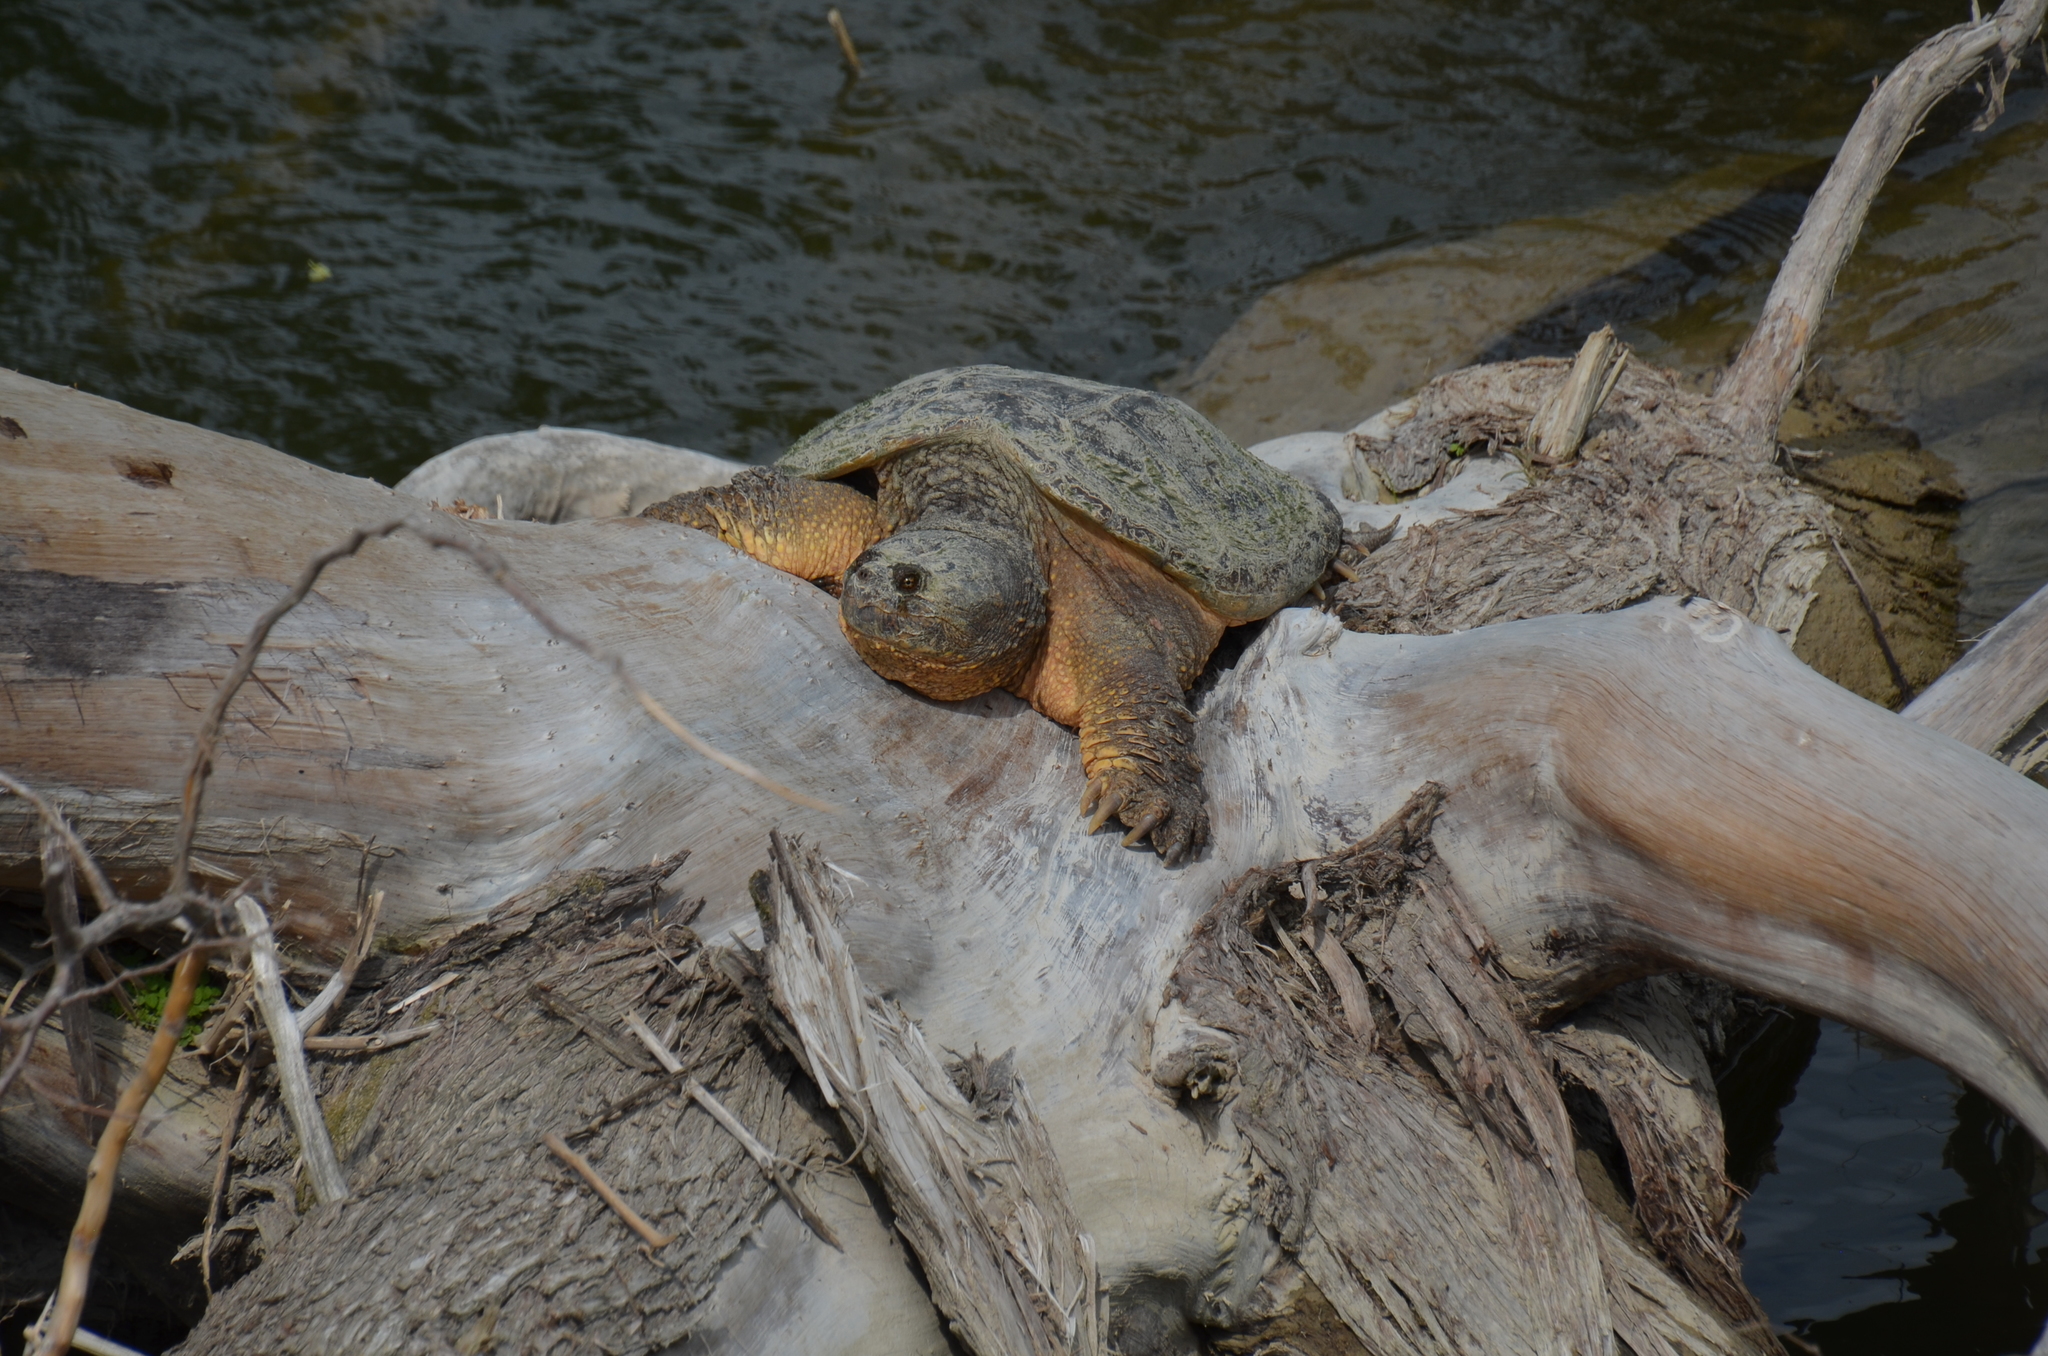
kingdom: Animalia
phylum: Chordata
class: Testudines
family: Chelydridae
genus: Chelydra
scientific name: Chelydra serpentina
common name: Common snapping turtle
